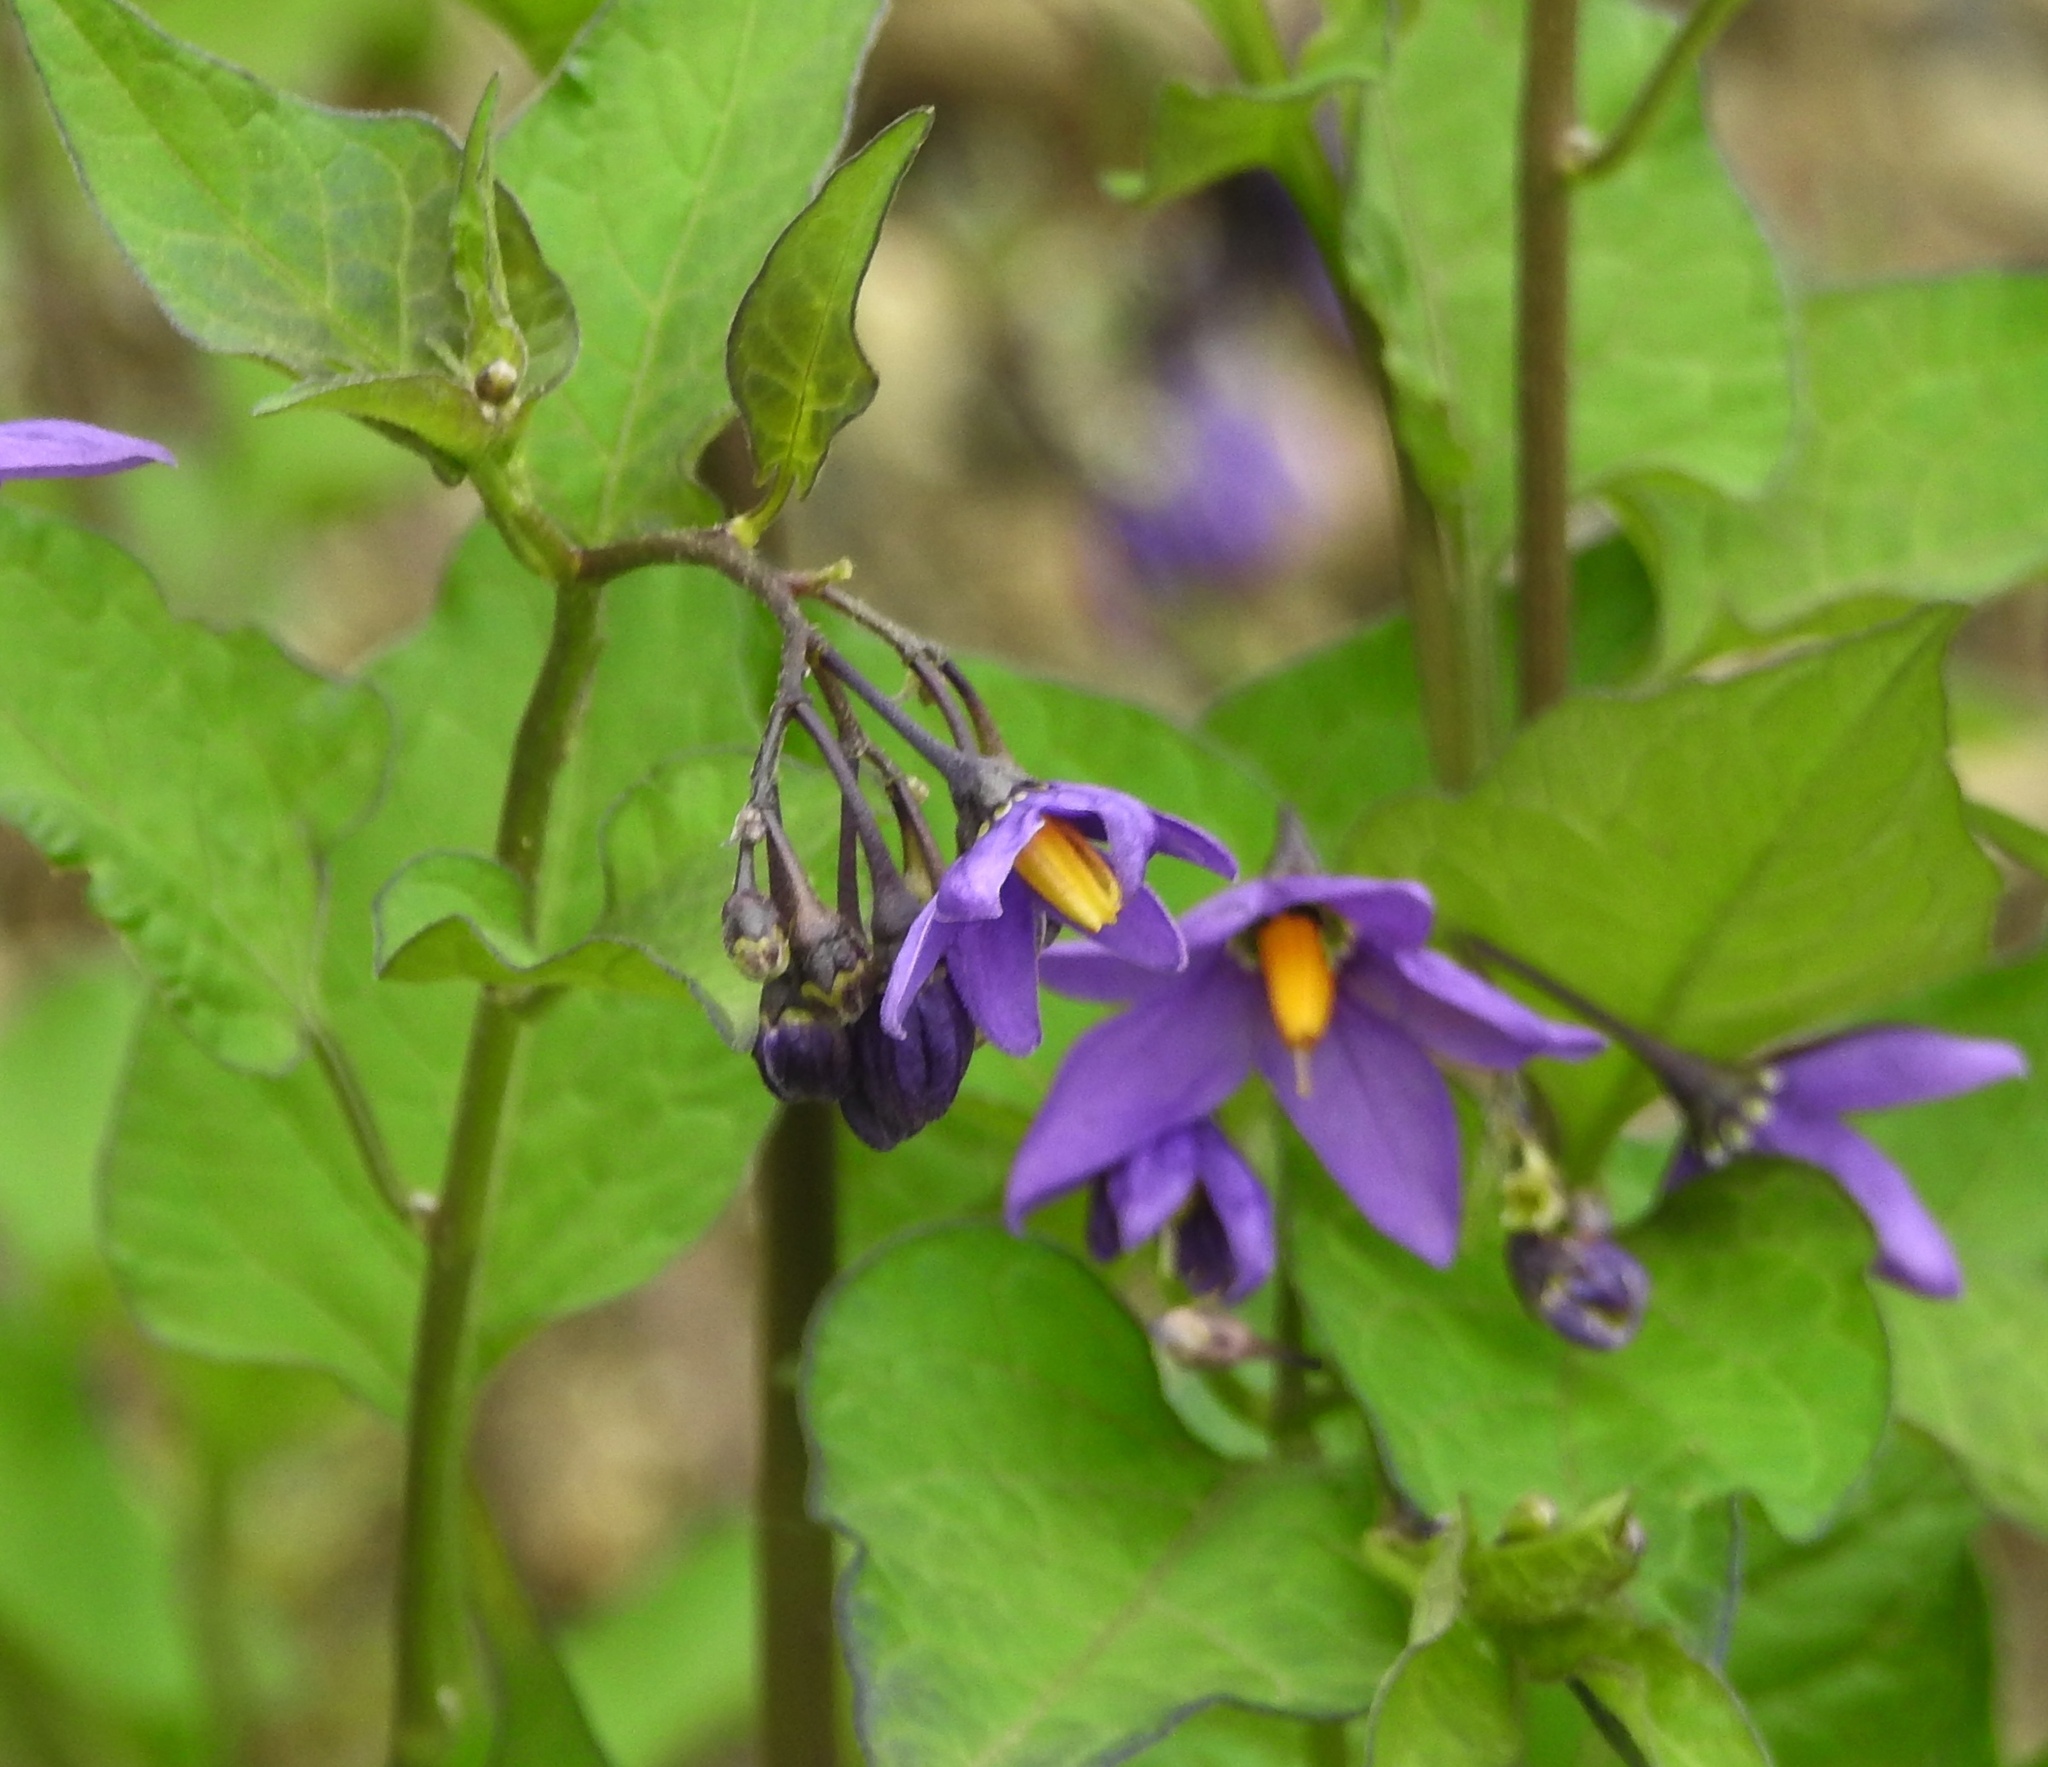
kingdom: Plantae
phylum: Tracheophyta
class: Magnoliopsida
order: Solanales
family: Solanaceae
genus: Solanum
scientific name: Solanum dulcamara
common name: Climbing nightshade
